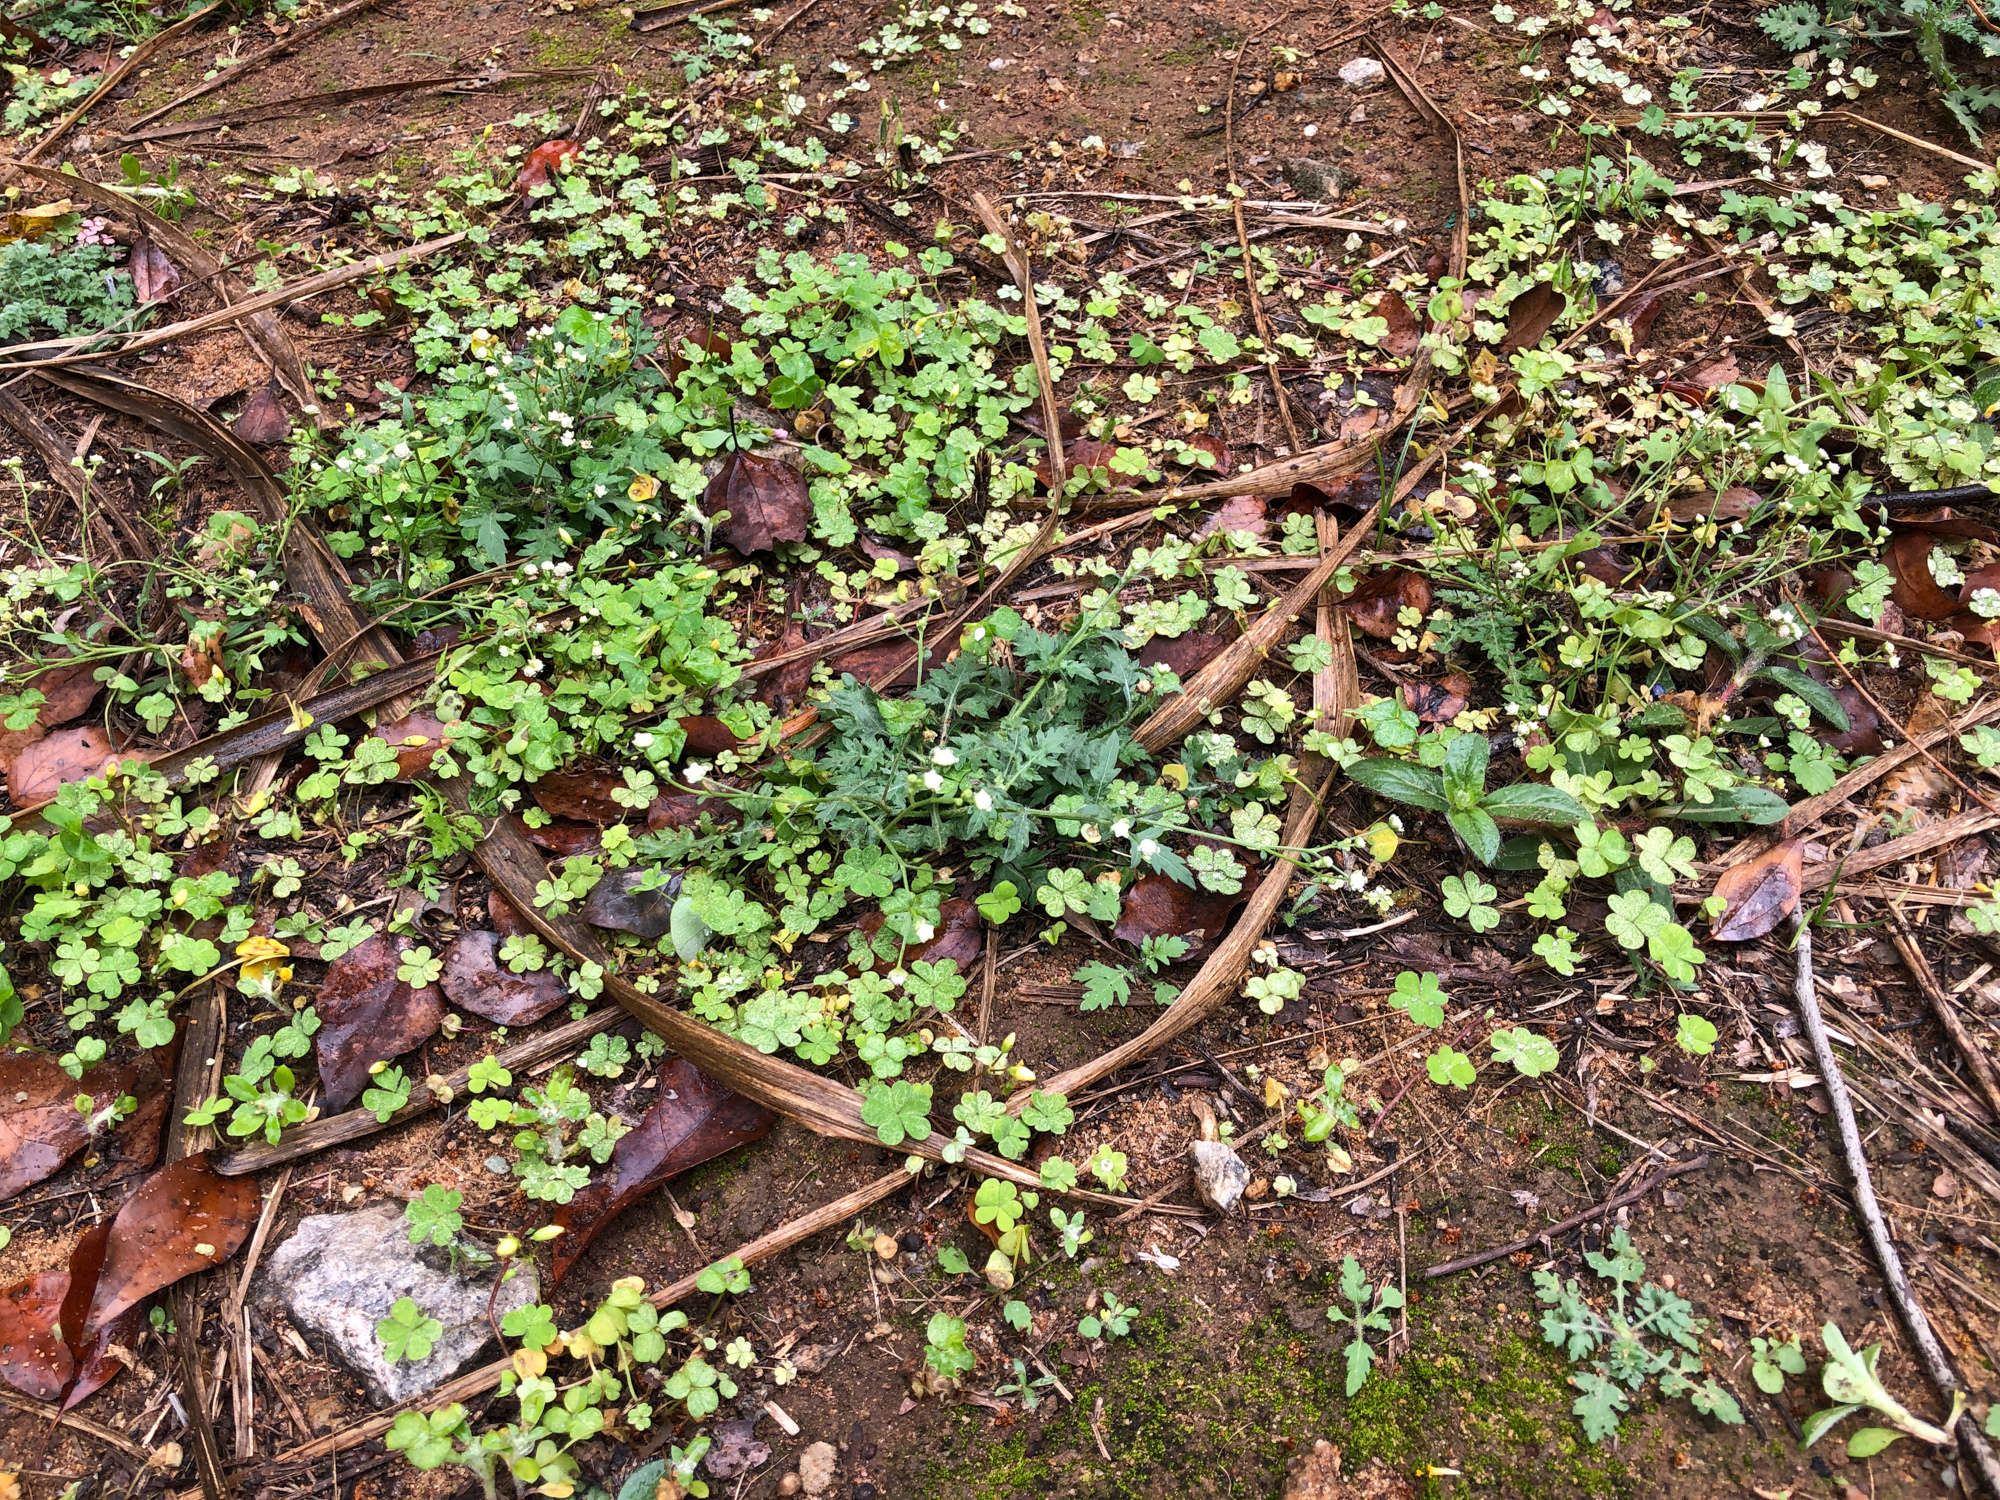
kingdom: Plantae
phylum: Tracheophyta
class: Magnoliopsida
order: Asterales
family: Asteraceae
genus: Parthenium
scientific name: Parthenium hysterophorus
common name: Santa maria feverfew
